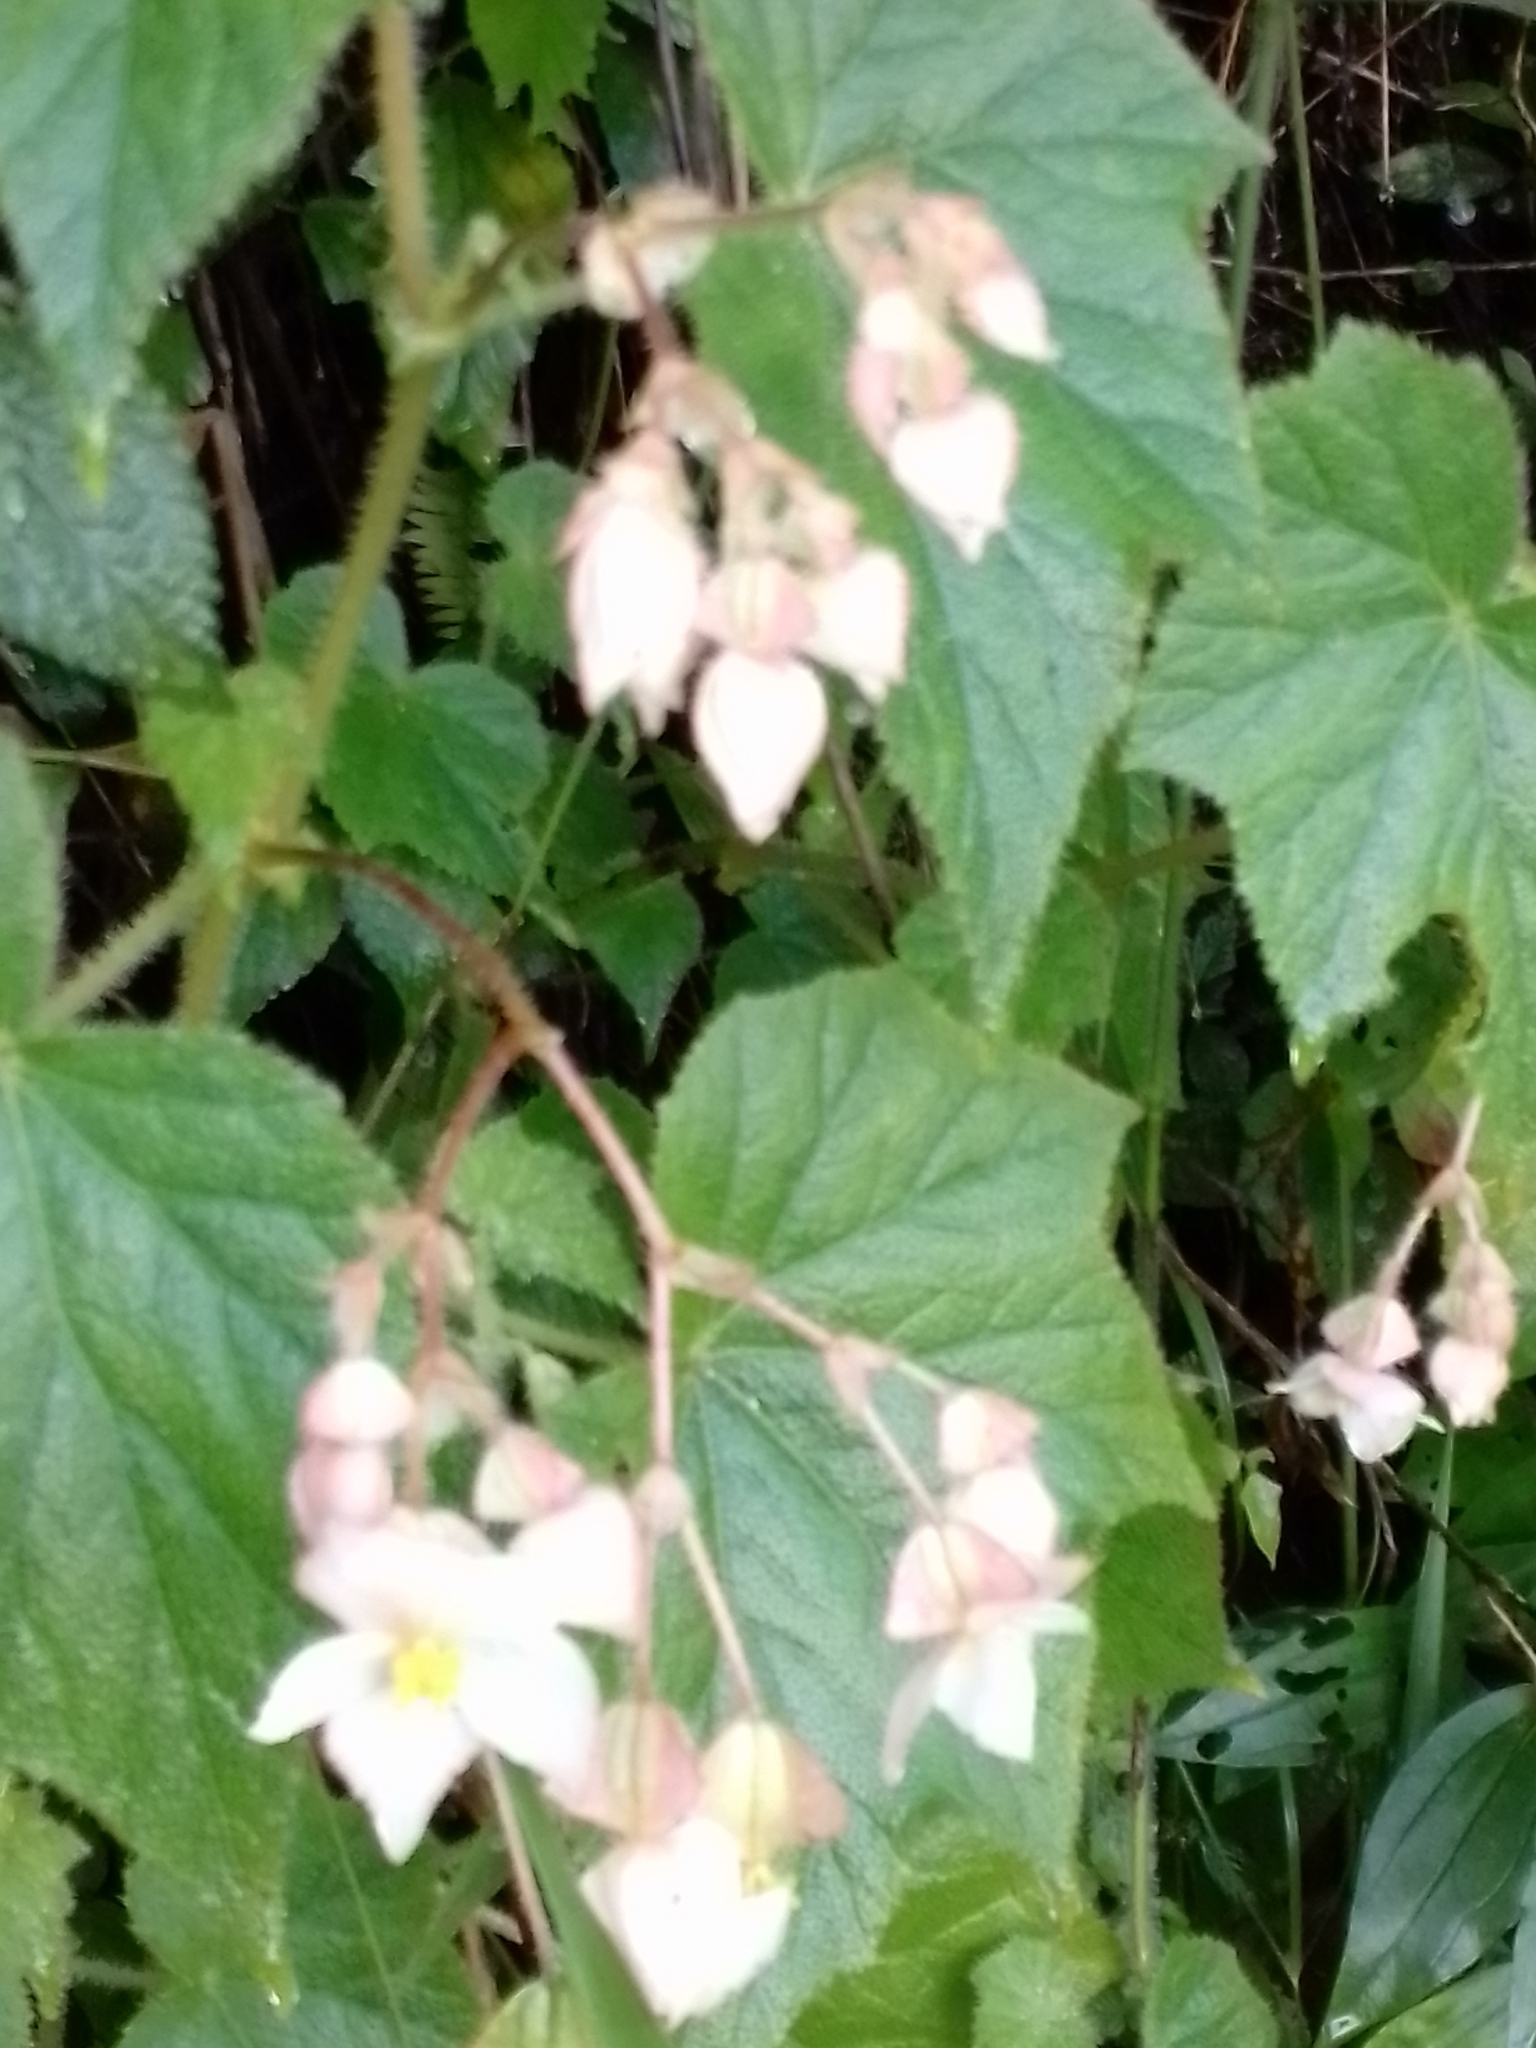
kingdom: Plantae
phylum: Tracheophyta
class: Magnoliopsida
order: Cucurbitales
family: Begoniaceae
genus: Begonia
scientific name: Begonia ignea
